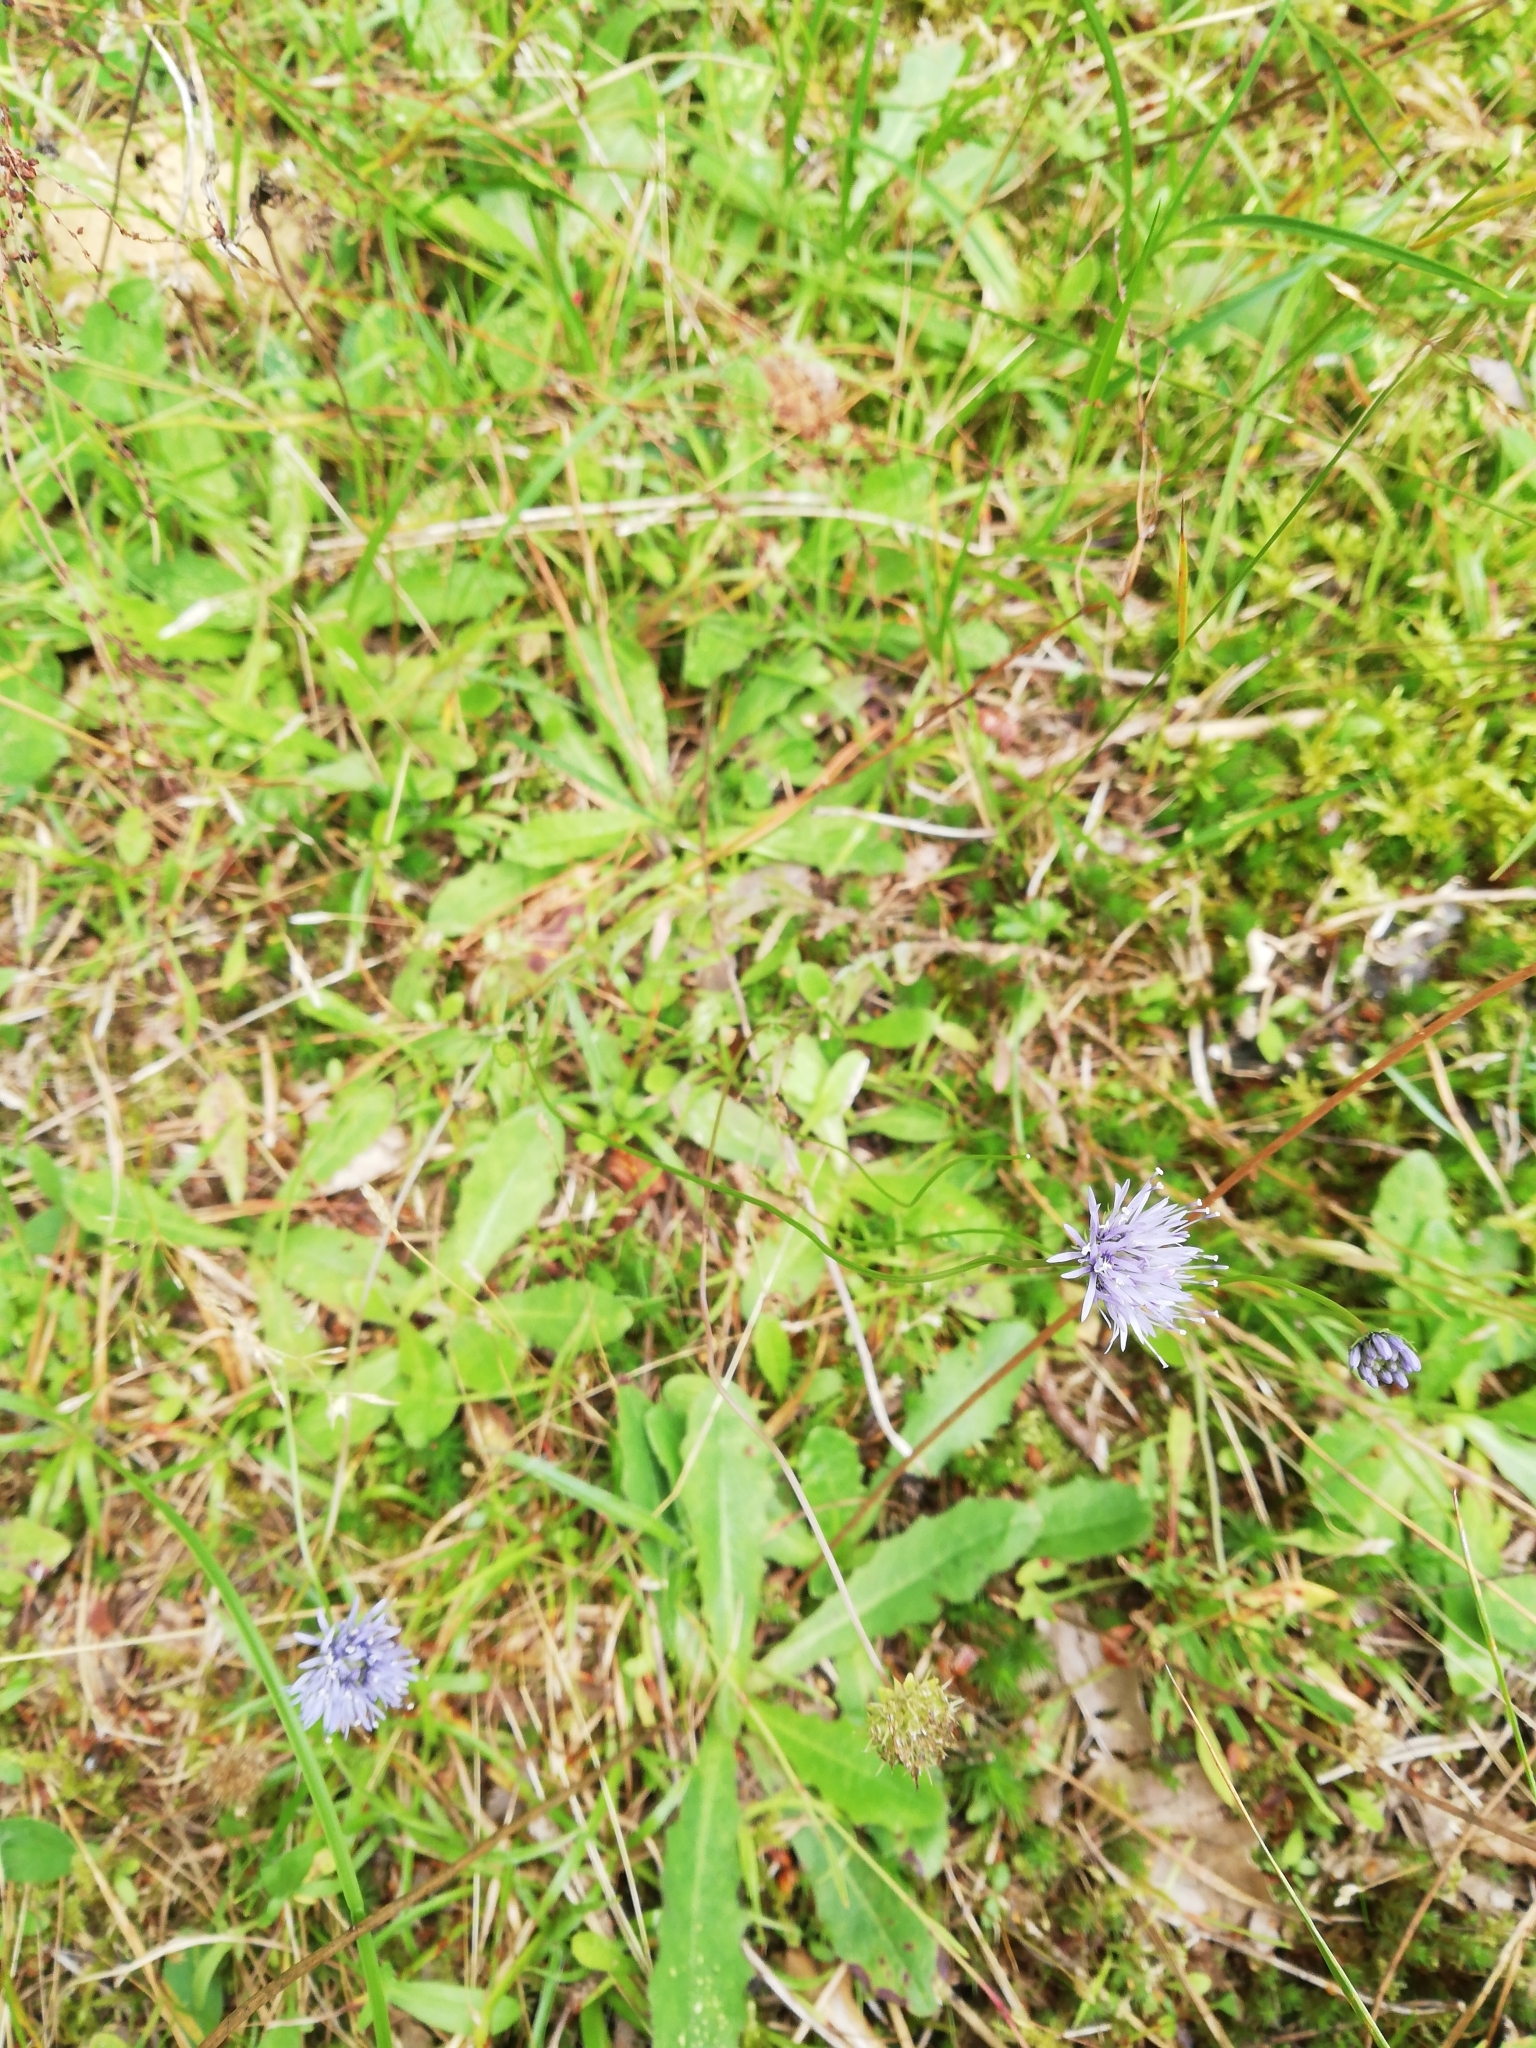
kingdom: Plantae
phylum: Tracheophyta
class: Magnoliopsida
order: Asterales
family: Campanulaceae
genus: Jasione
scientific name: Jasione montana
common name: Sheep's-bit
